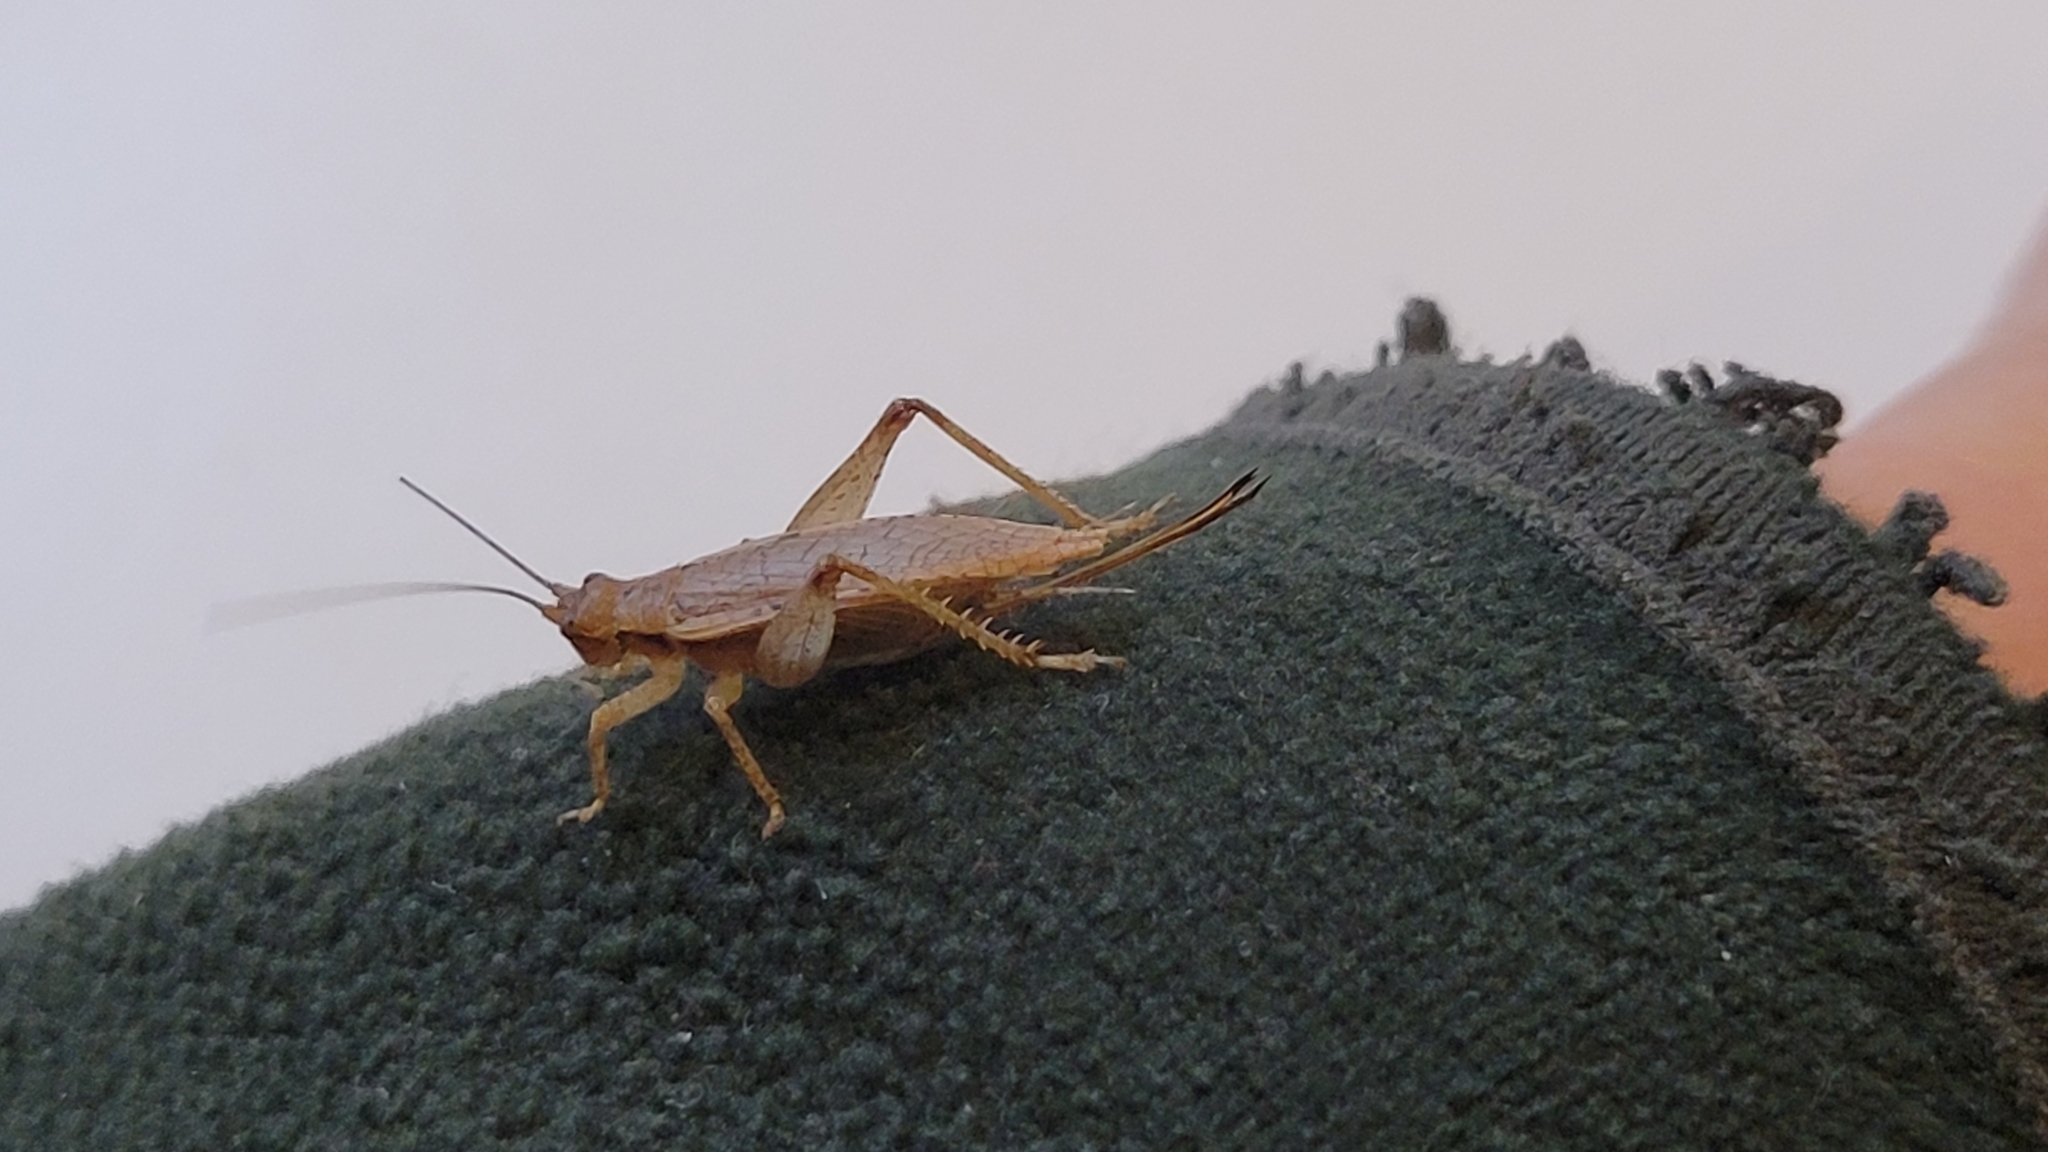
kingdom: Animalia
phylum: Arthropoda
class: Insecta
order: Orthoptera
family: Gryllidae
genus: Hapithus
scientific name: Hapithus saltator
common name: Jumping bush cricket
